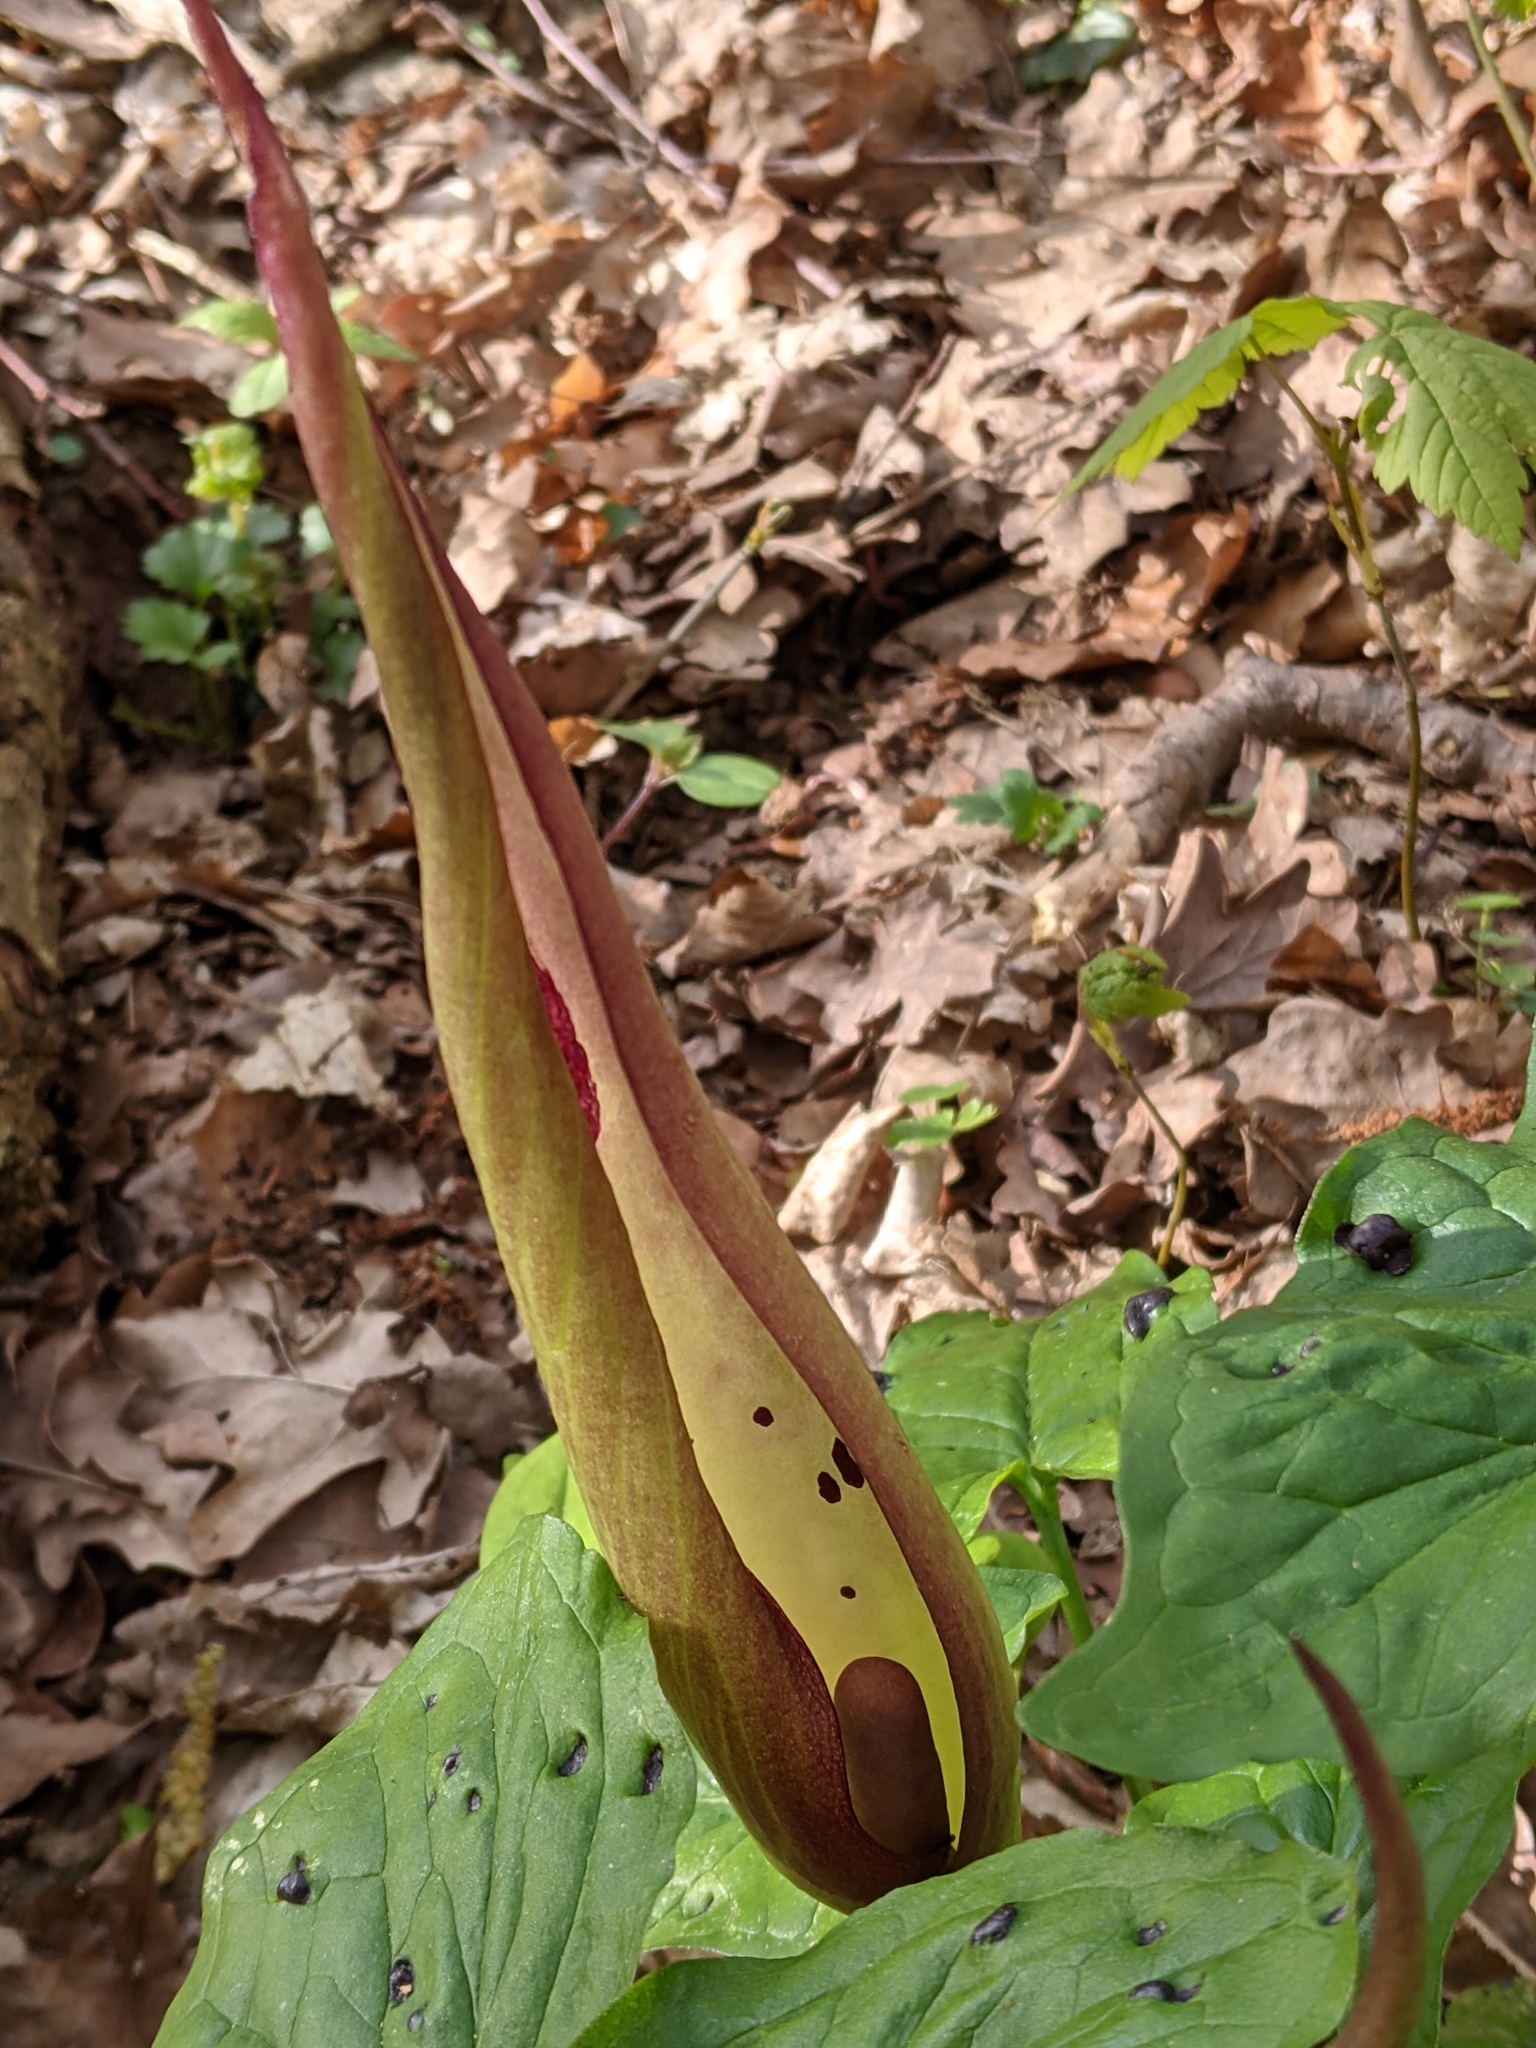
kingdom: Plantae
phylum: Tracheophyta
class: Liliopsida
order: Alismatales
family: Araceae
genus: Arum
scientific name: Arum maculatum
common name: Lords-and-ladies
